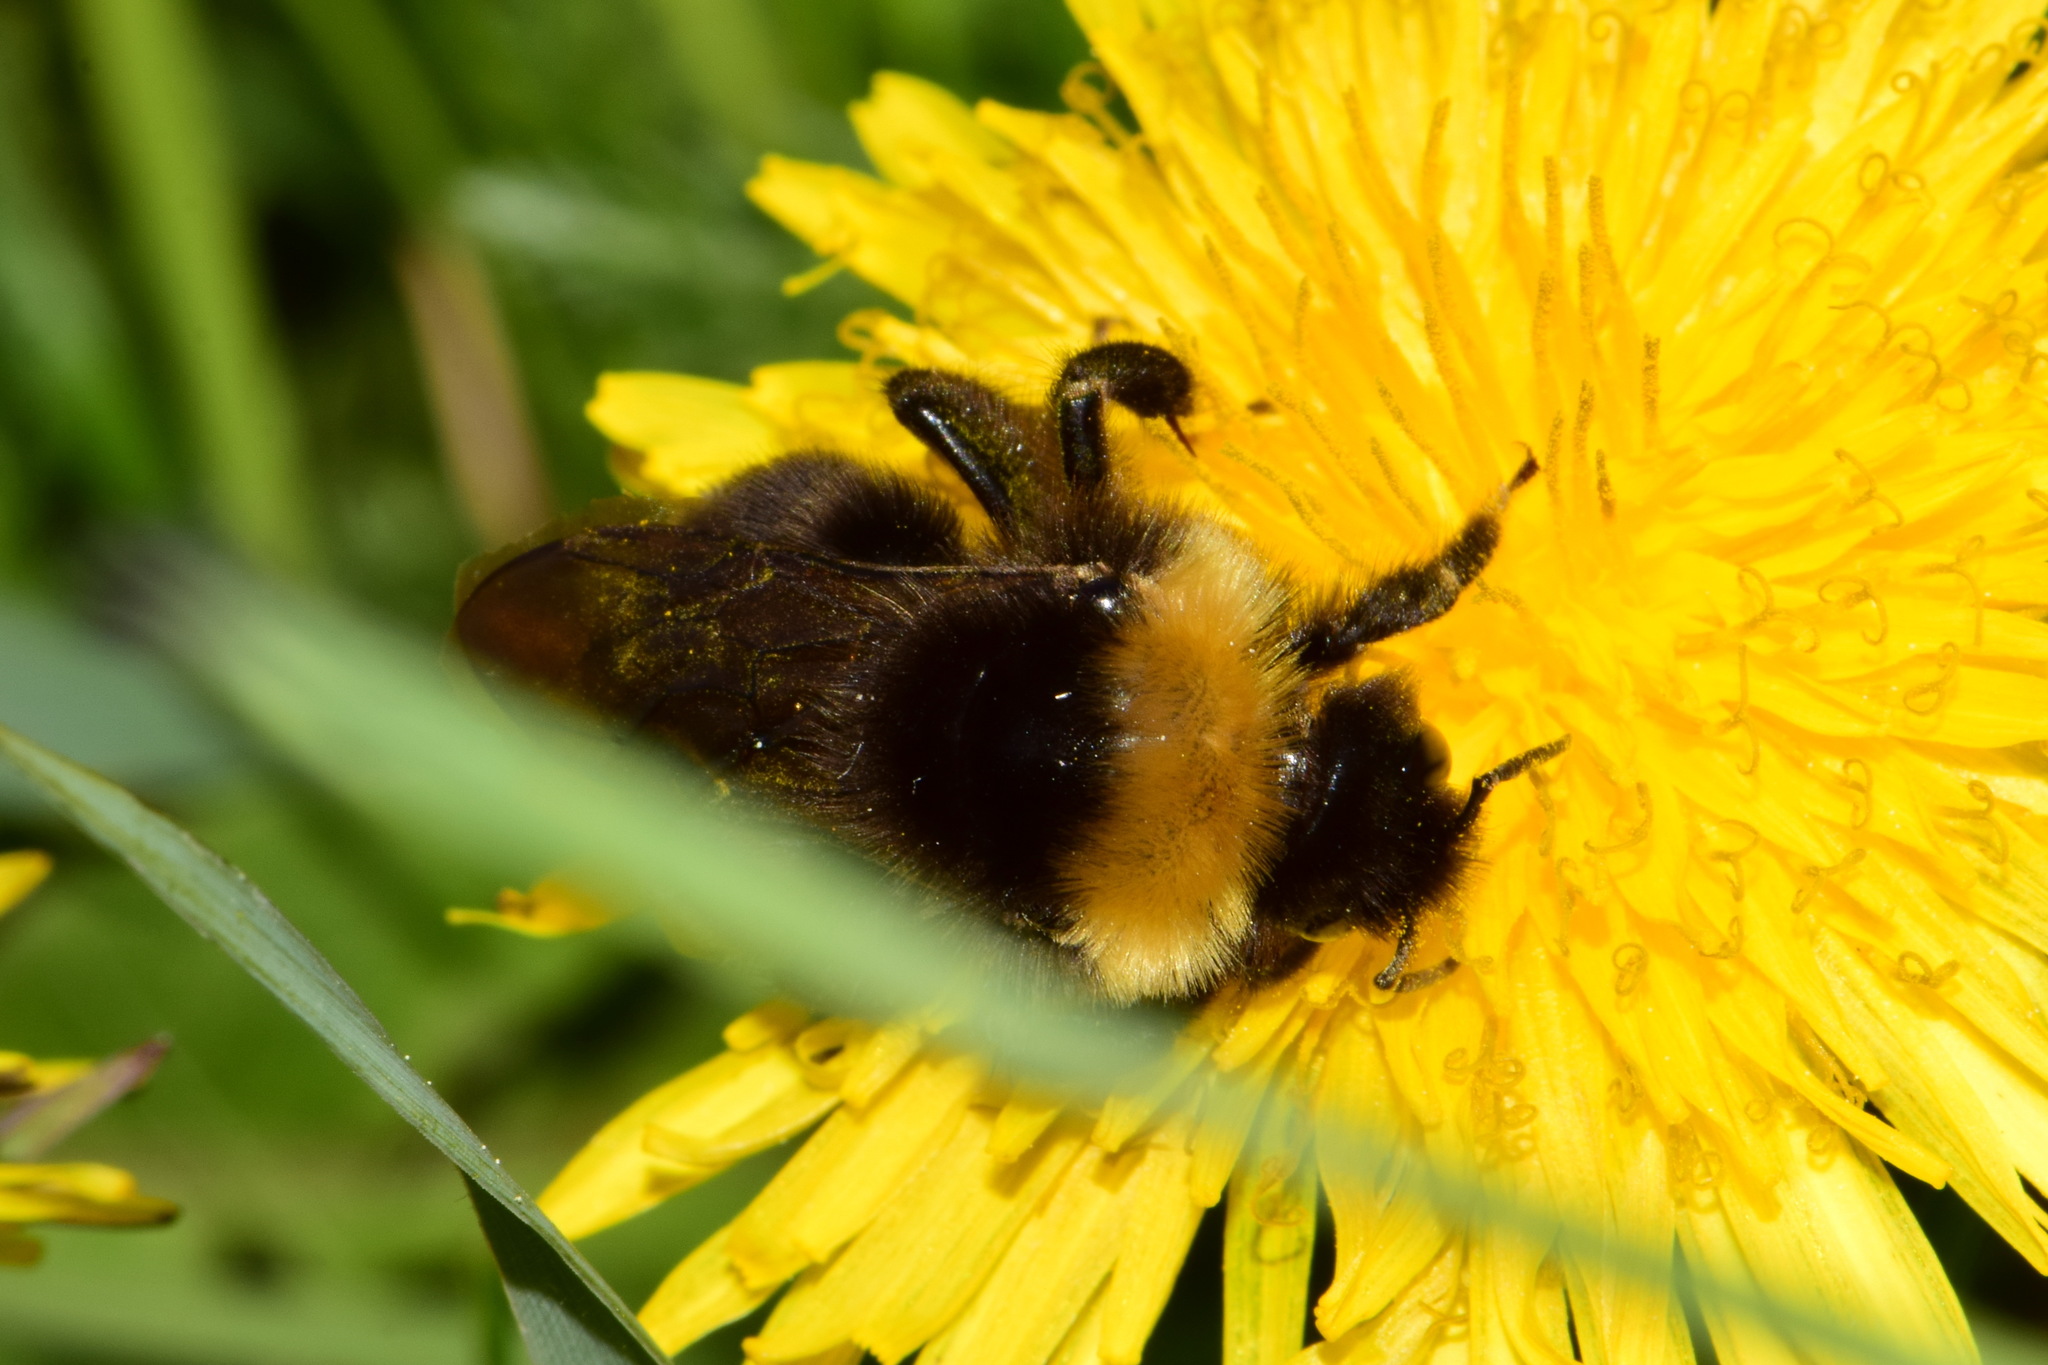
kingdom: Animalia
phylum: Arthropoda
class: Insecta
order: Hymenoptera
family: Apidae
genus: Bombus
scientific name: Bombus bohemicus
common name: Gypsy cuckoo bee
